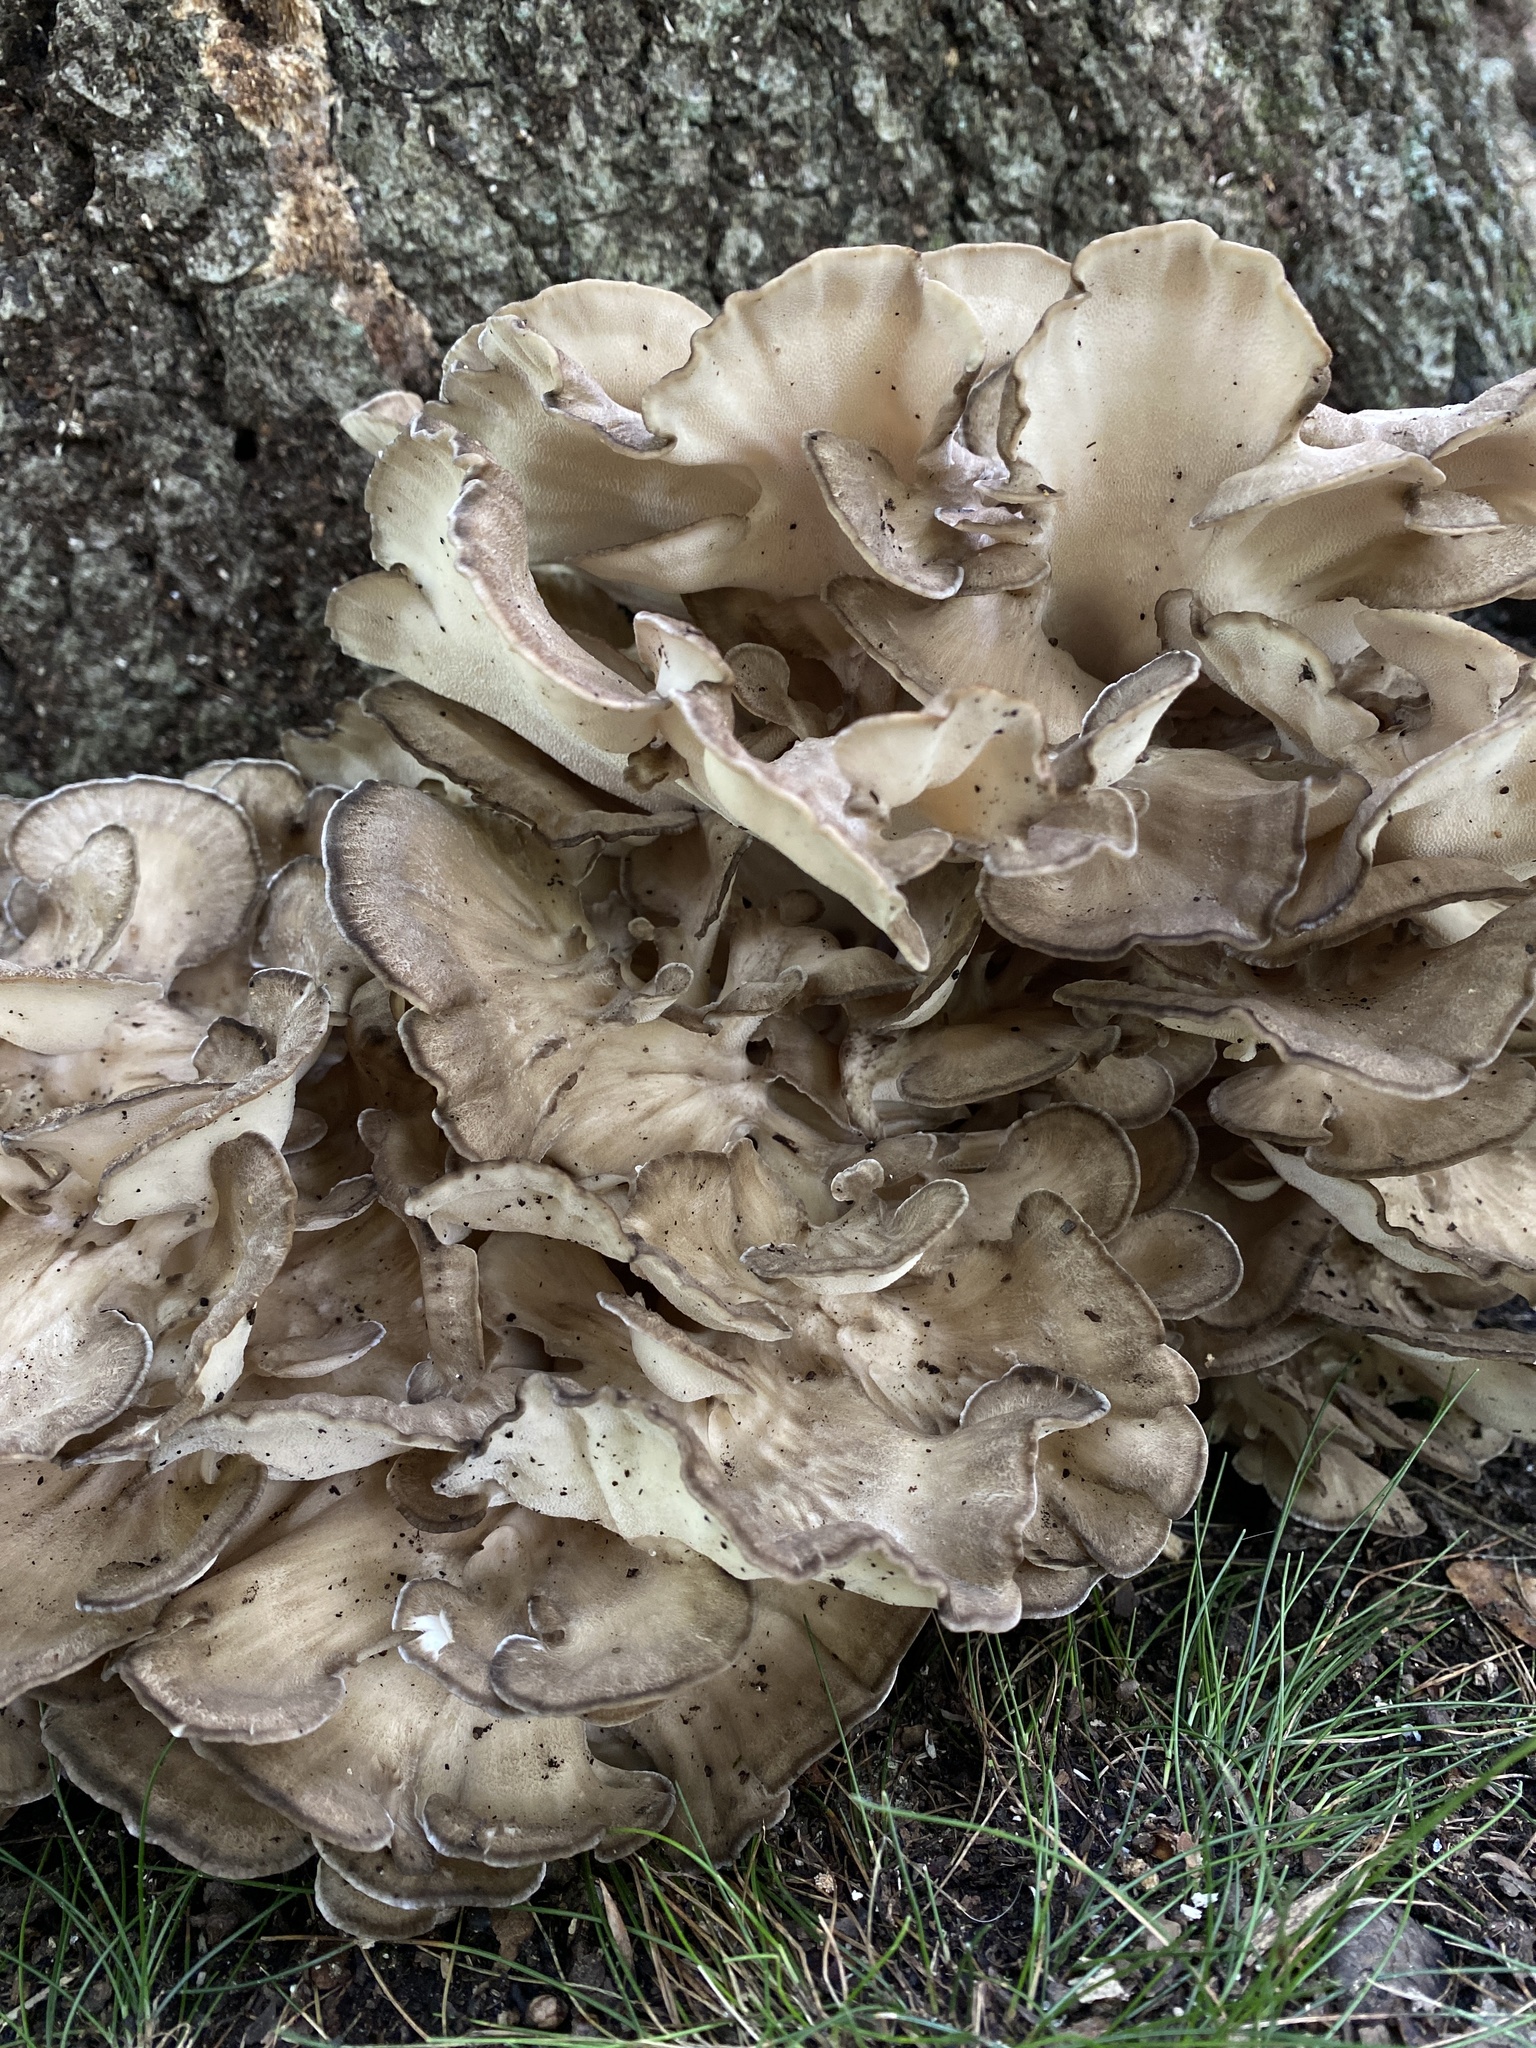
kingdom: Fungi
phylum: Basidiomycota
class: Agaricomycetes
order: Polyporales
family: Grifolaceae
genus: Grifola
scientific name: Grifola frondosa
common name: Hen of the woods
